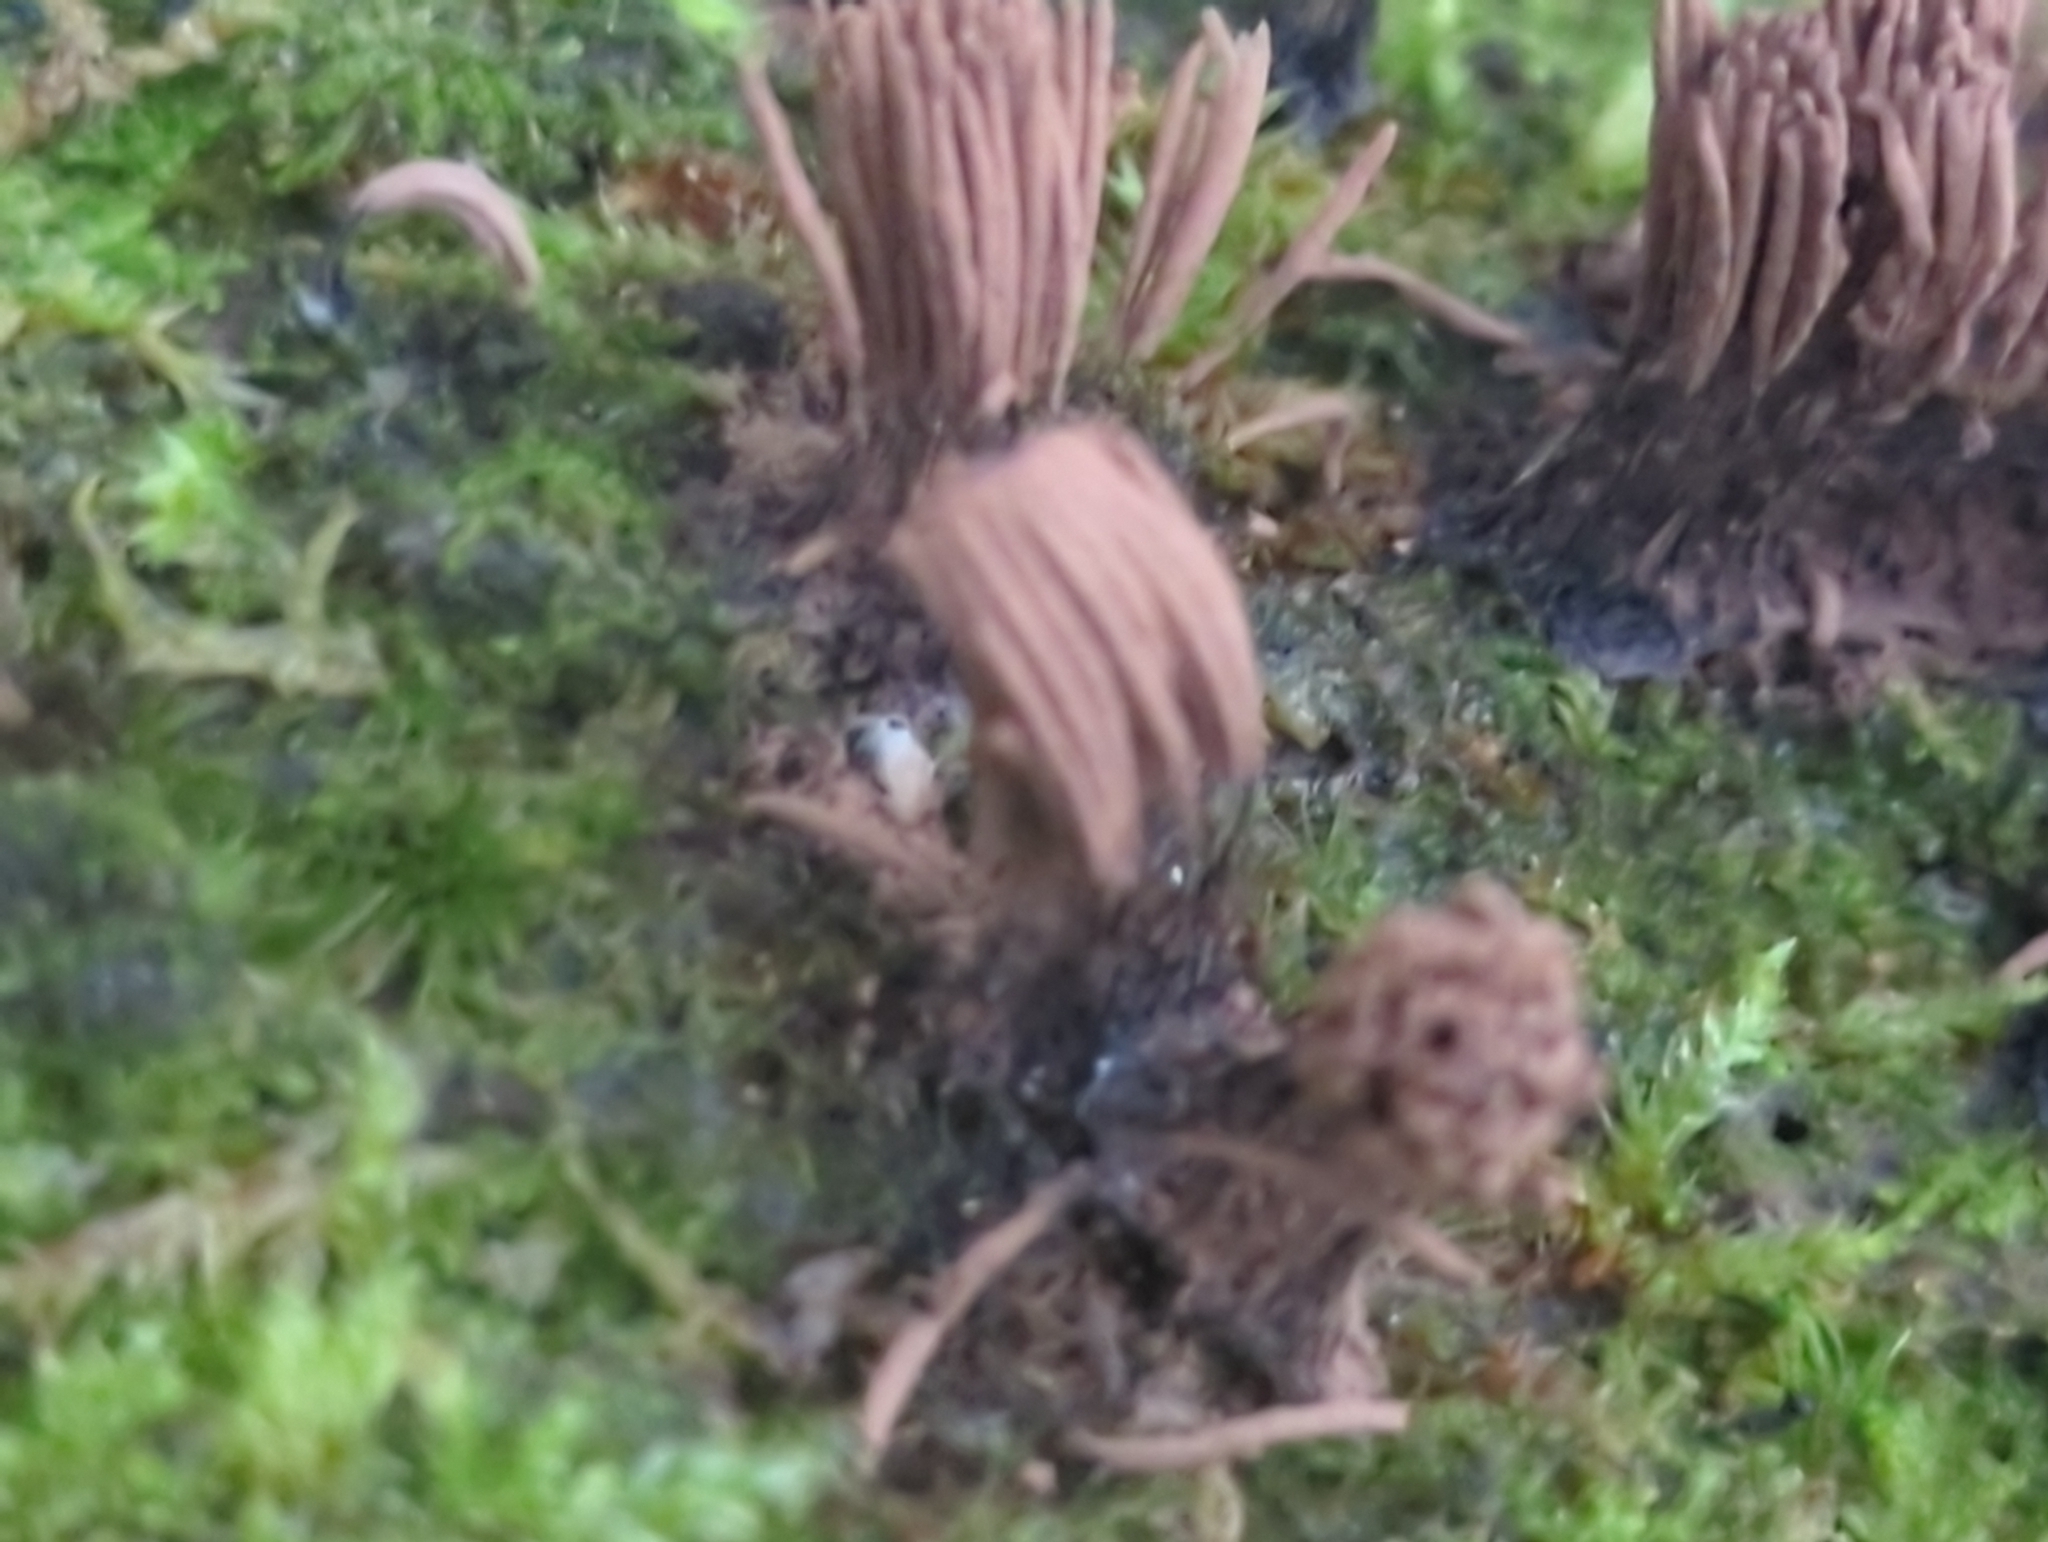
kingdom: Protozoa
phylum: Mycetozoa
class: Myxomycetes
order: Stemonitidales
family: Stemonitidaceae
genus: Stemonitis
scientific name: Stemonitis
